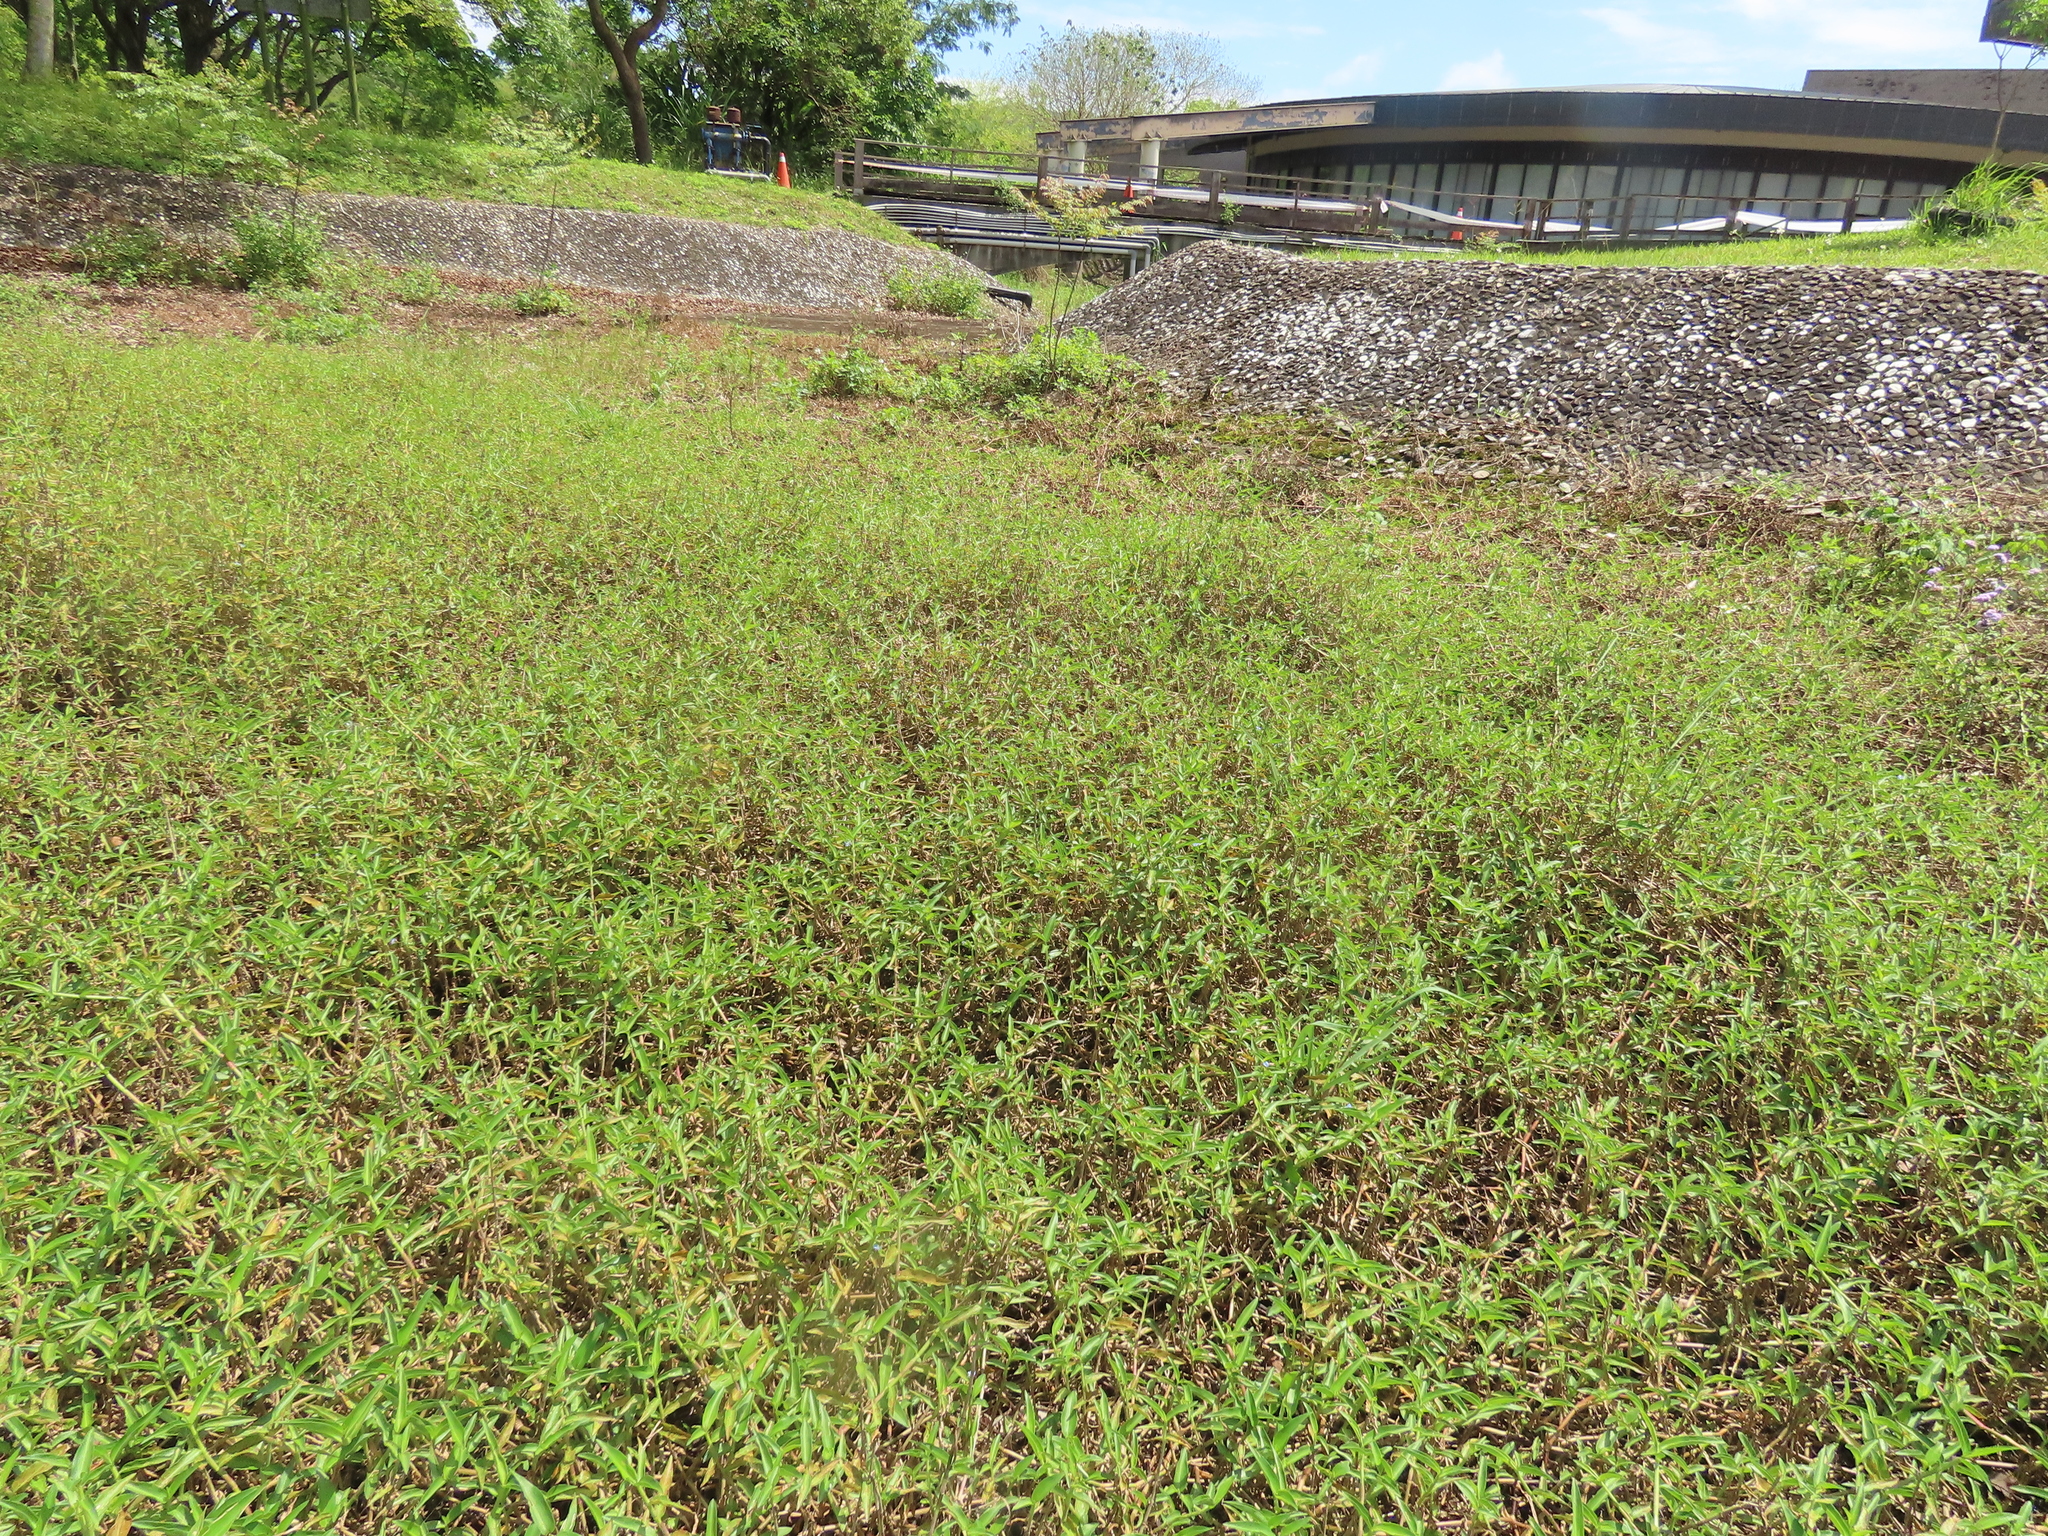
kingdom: Plantae
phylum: Tracheophyta
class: Liliopsida
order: Commelinales
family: Commelinaceae
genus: Commelina
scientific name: Commelina diffusa
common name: Climbing dayflower
